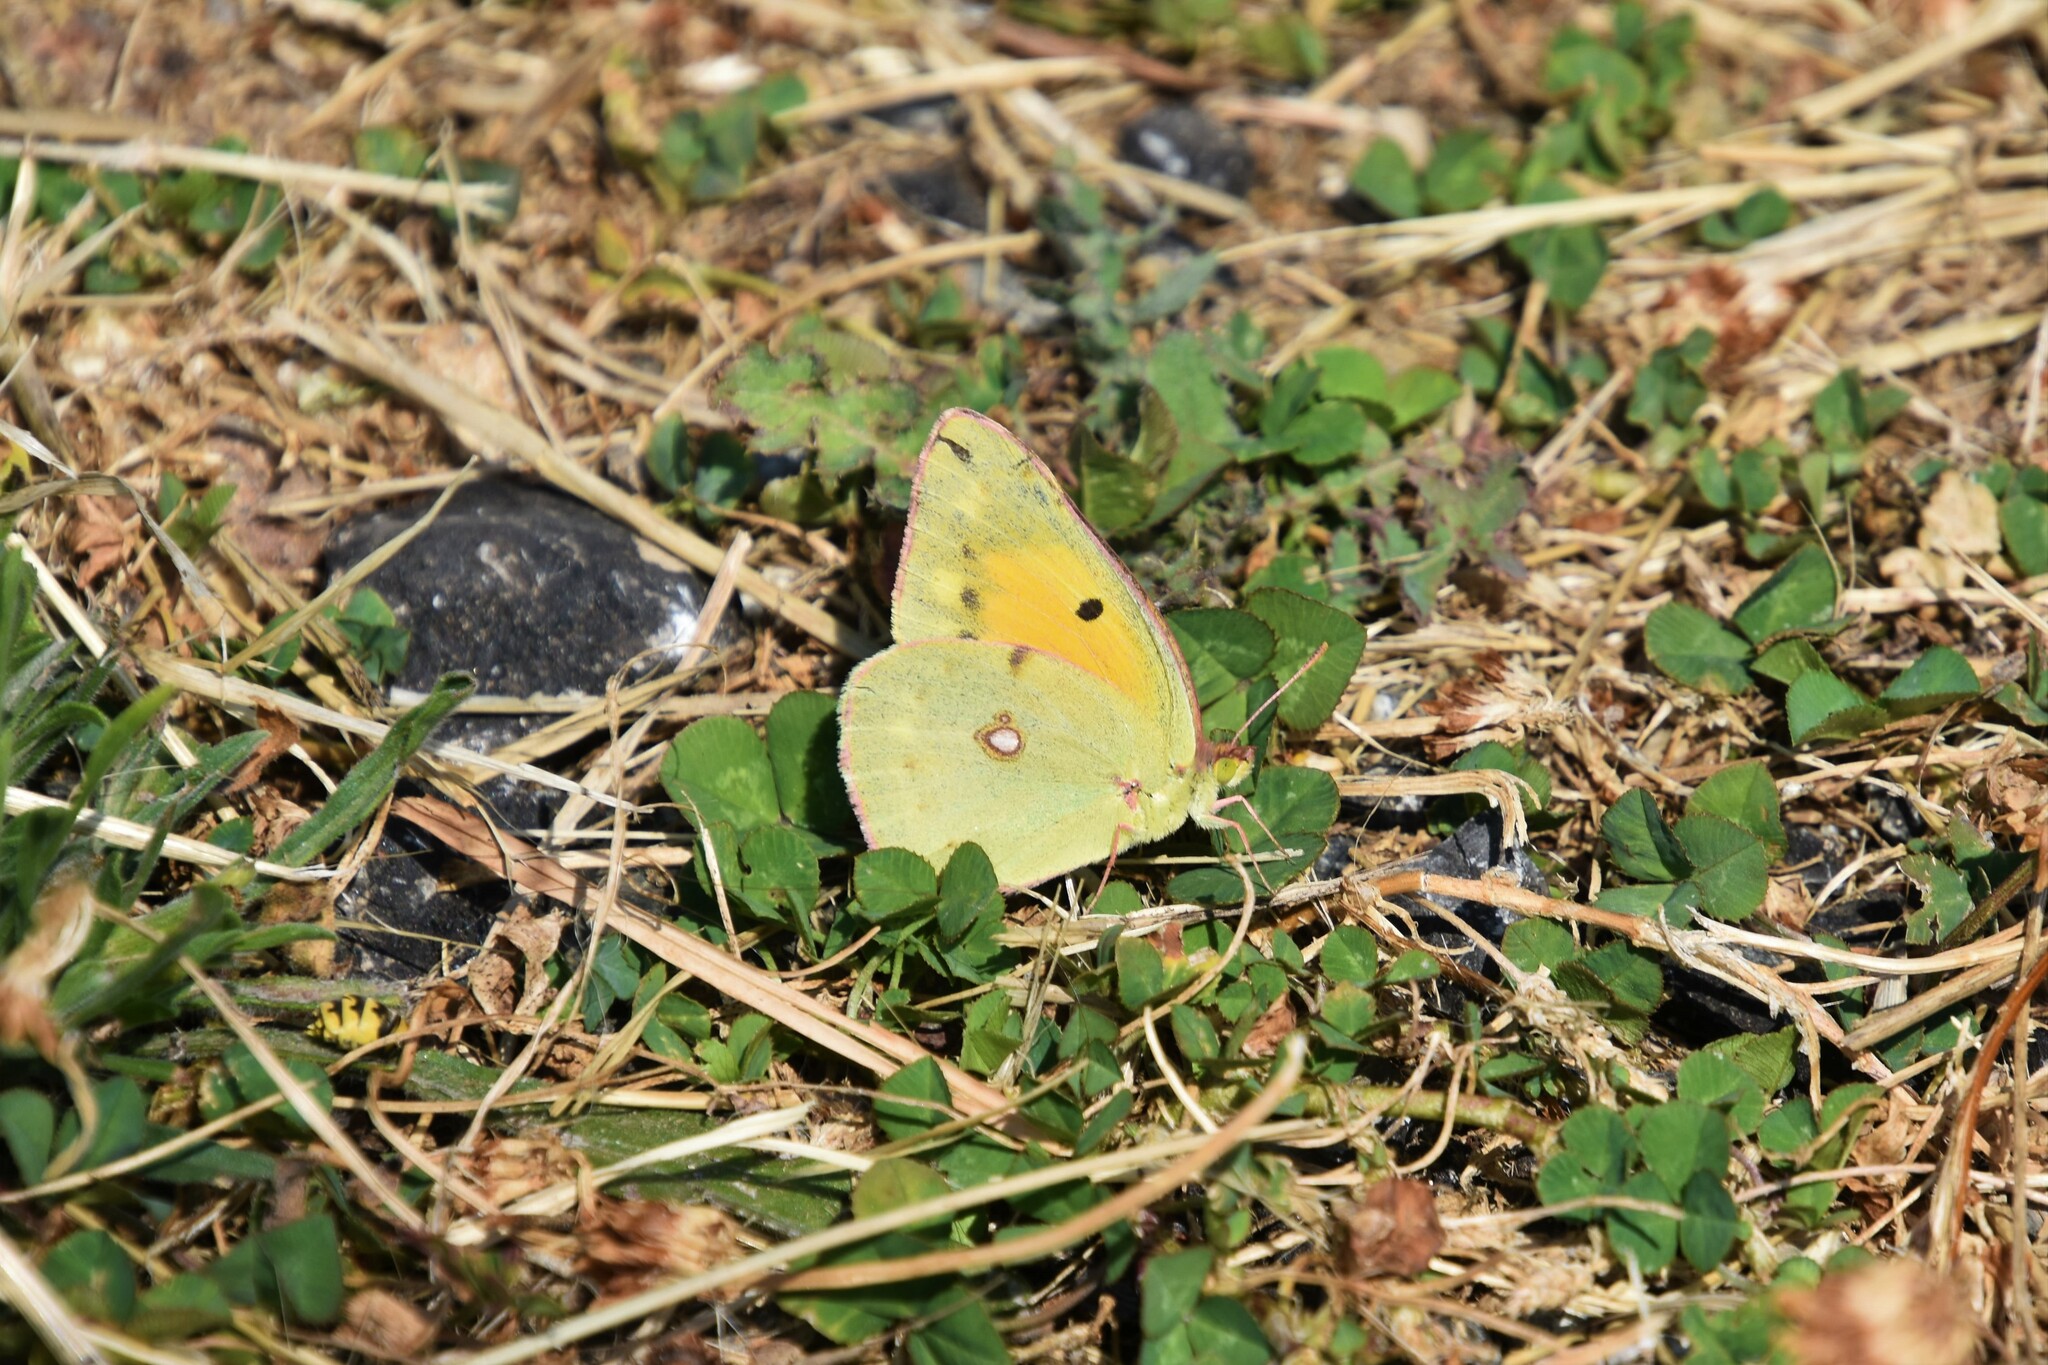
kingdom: Animalia
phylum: Arthropoda
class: Insecta
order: Lepidoptera
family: Pieridae
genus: Colias
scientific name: Colias croceus
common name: Clouded yellow
